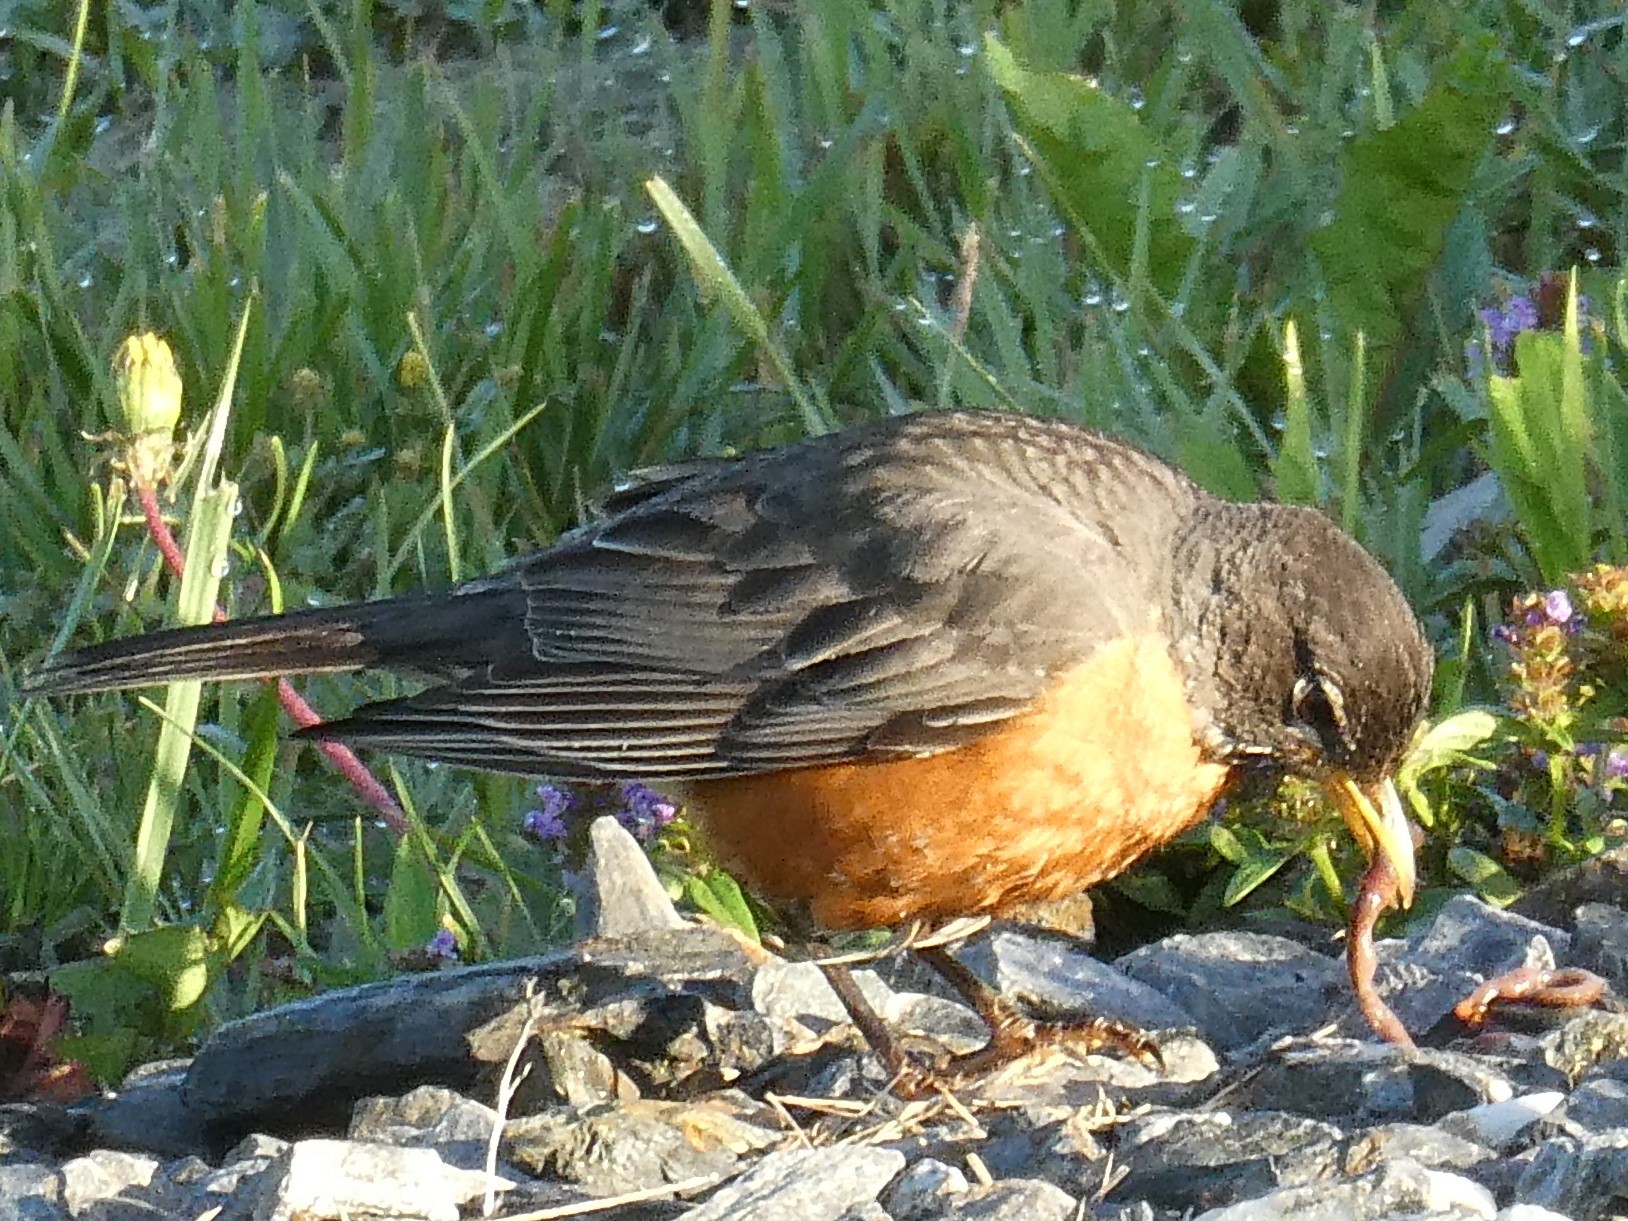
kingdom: Animalia
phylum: Chordata
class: Aves
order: Passeriformes
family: Turdidae
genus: Turdus
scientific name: Turdus migratorius
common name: American robin
